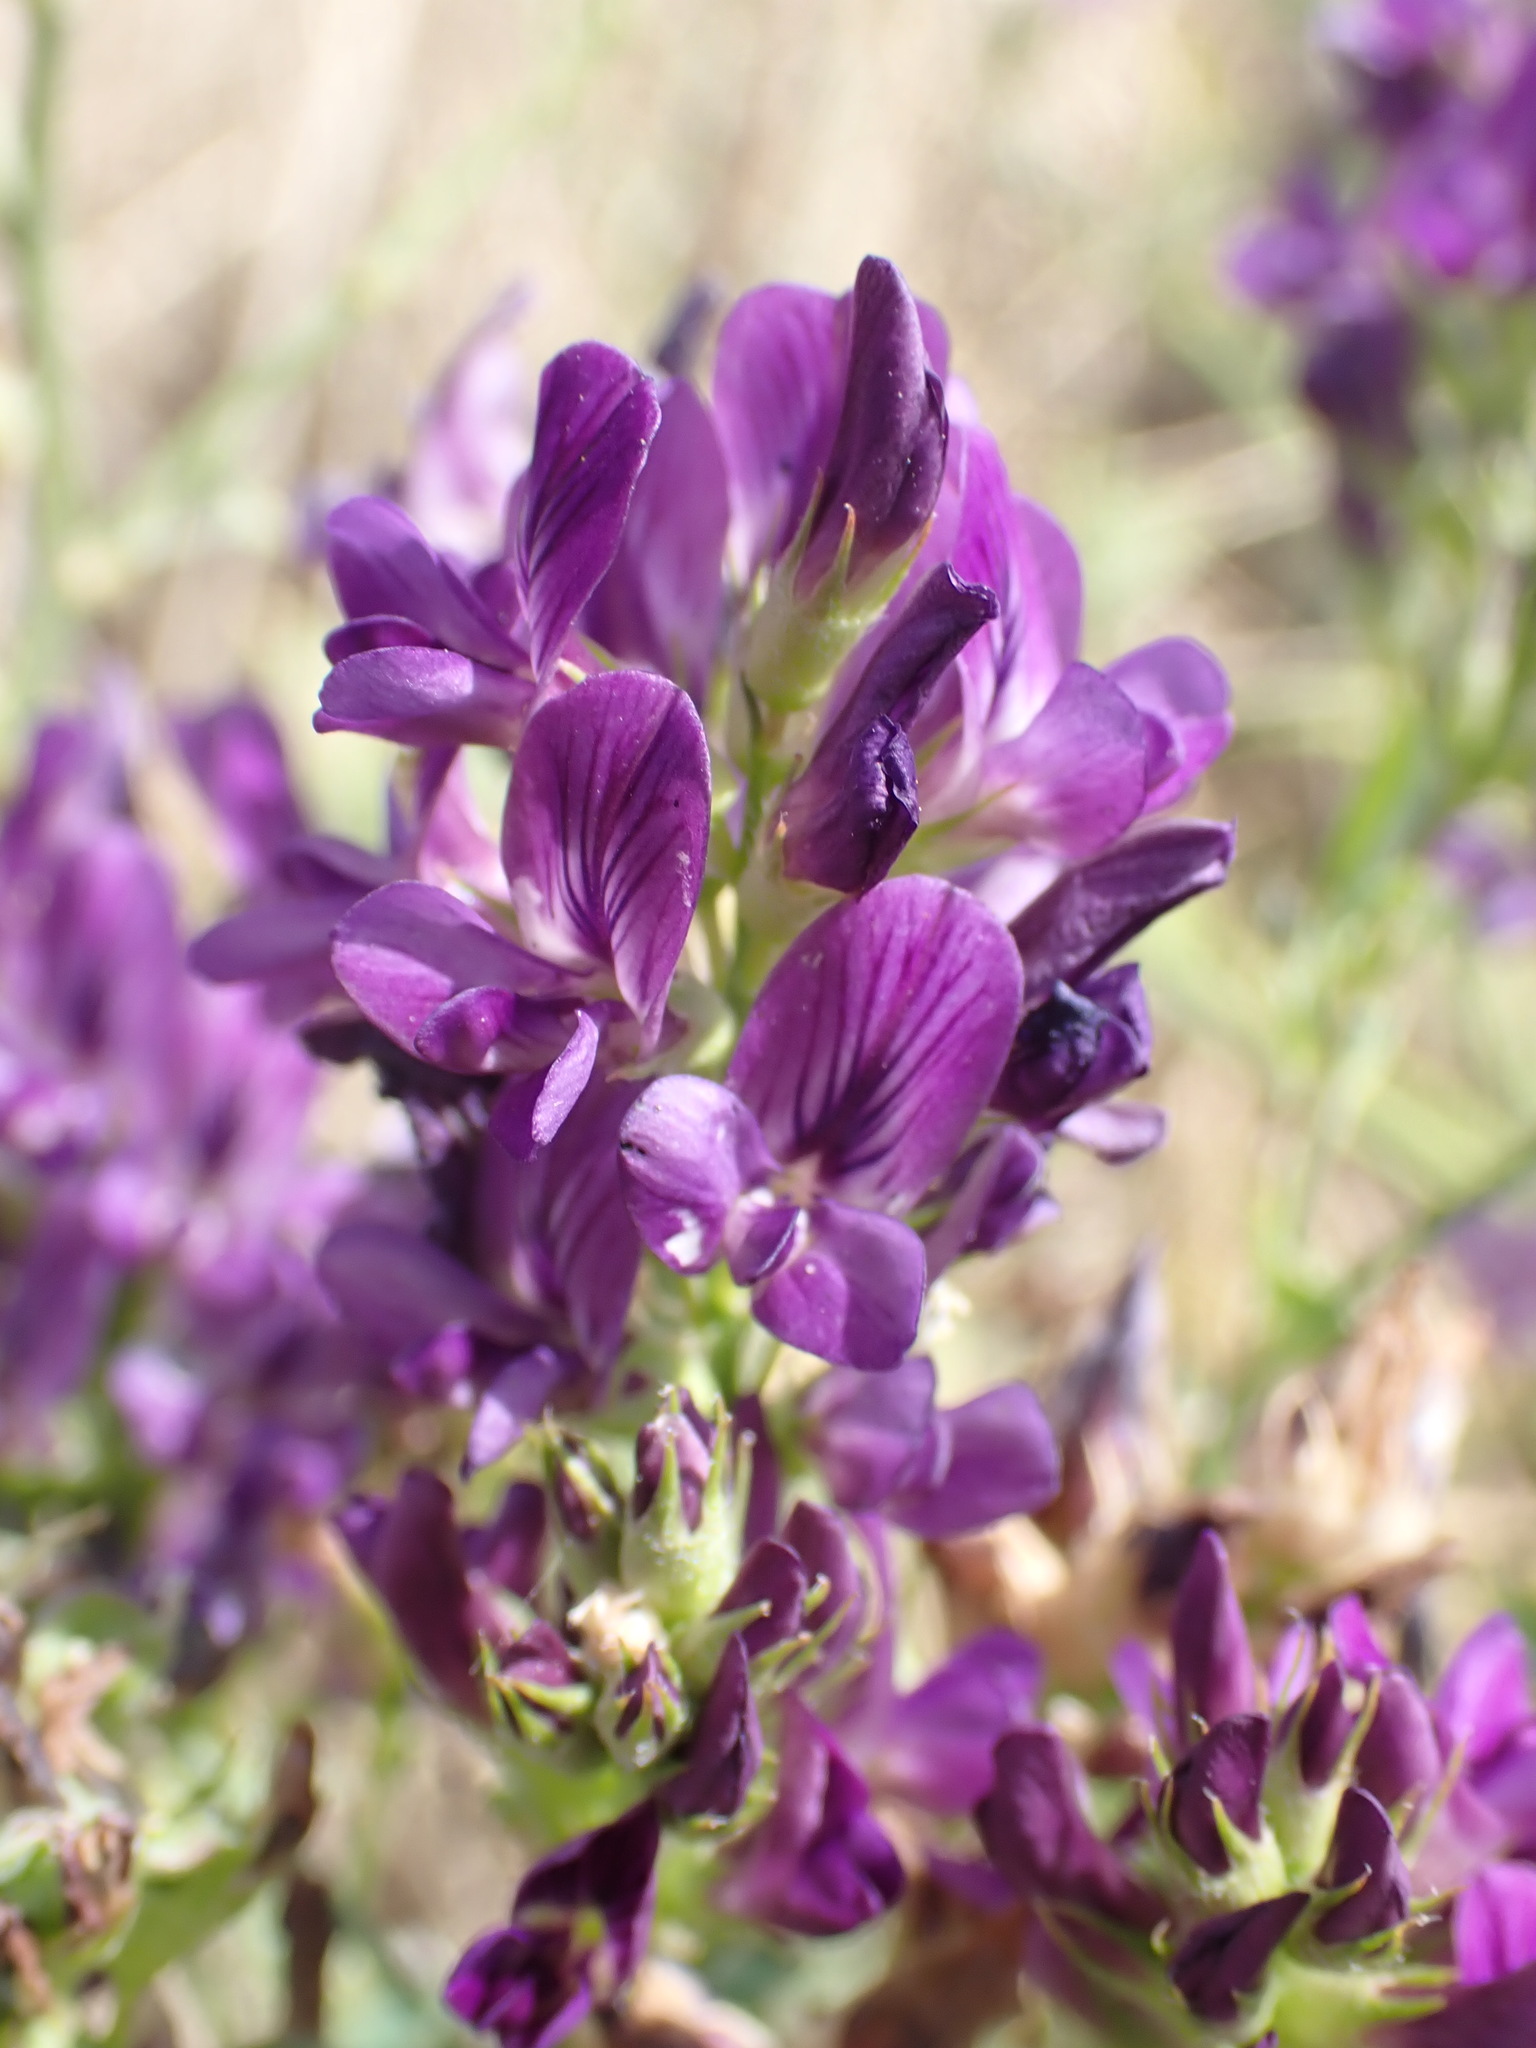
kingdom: Plantae
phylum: Tracheophyta
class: Magnoliopsida
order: Fabales
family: Fabaceae
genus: Medicago
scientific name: Medicago sativa
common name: Alfalfa
